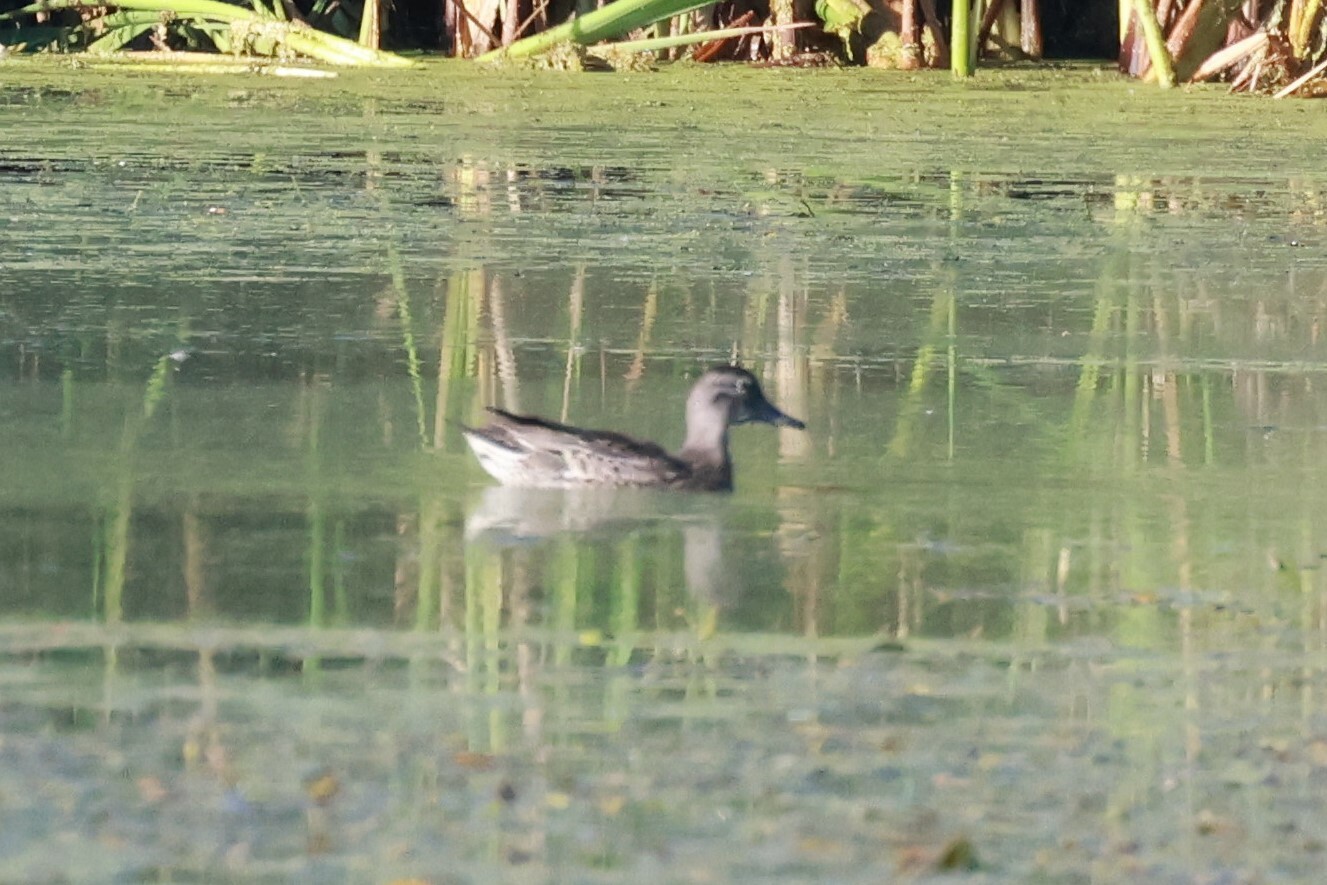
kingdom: Animalia
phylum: Chordata
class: Aves
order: Anseriformes
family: Anatidae
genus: Anas
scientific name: Anas crecca
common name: Eurasian teal
